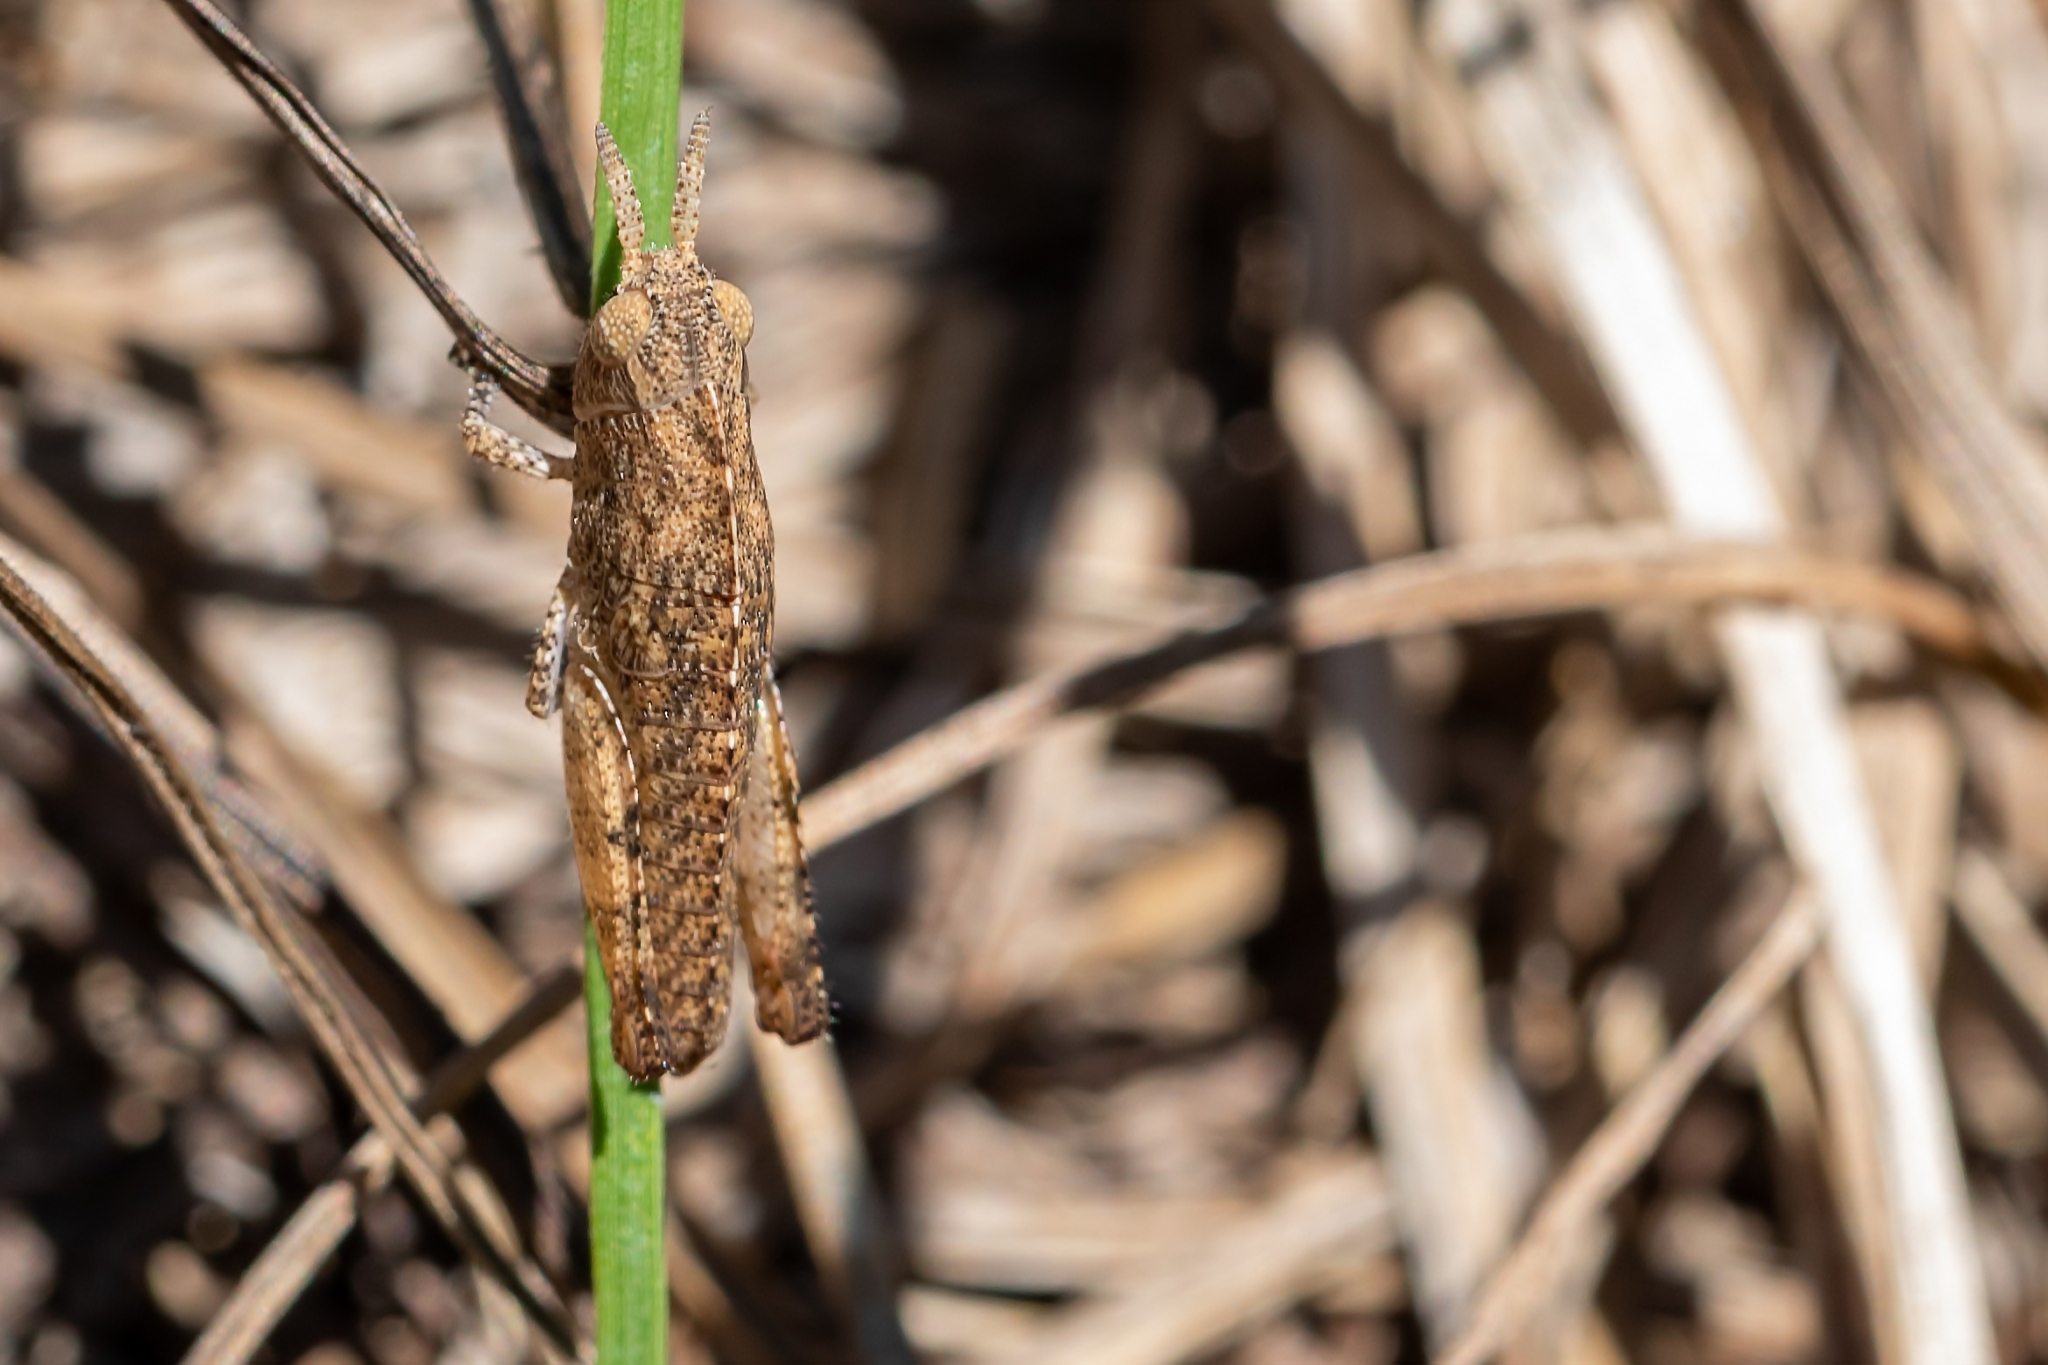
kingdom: Animalia
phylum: Arthropoda
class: Insecta
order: Orthoptera
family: Acrididae
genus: Chortophaga
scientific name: Chortophaga australior
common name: Southern green-striped grasshopper
